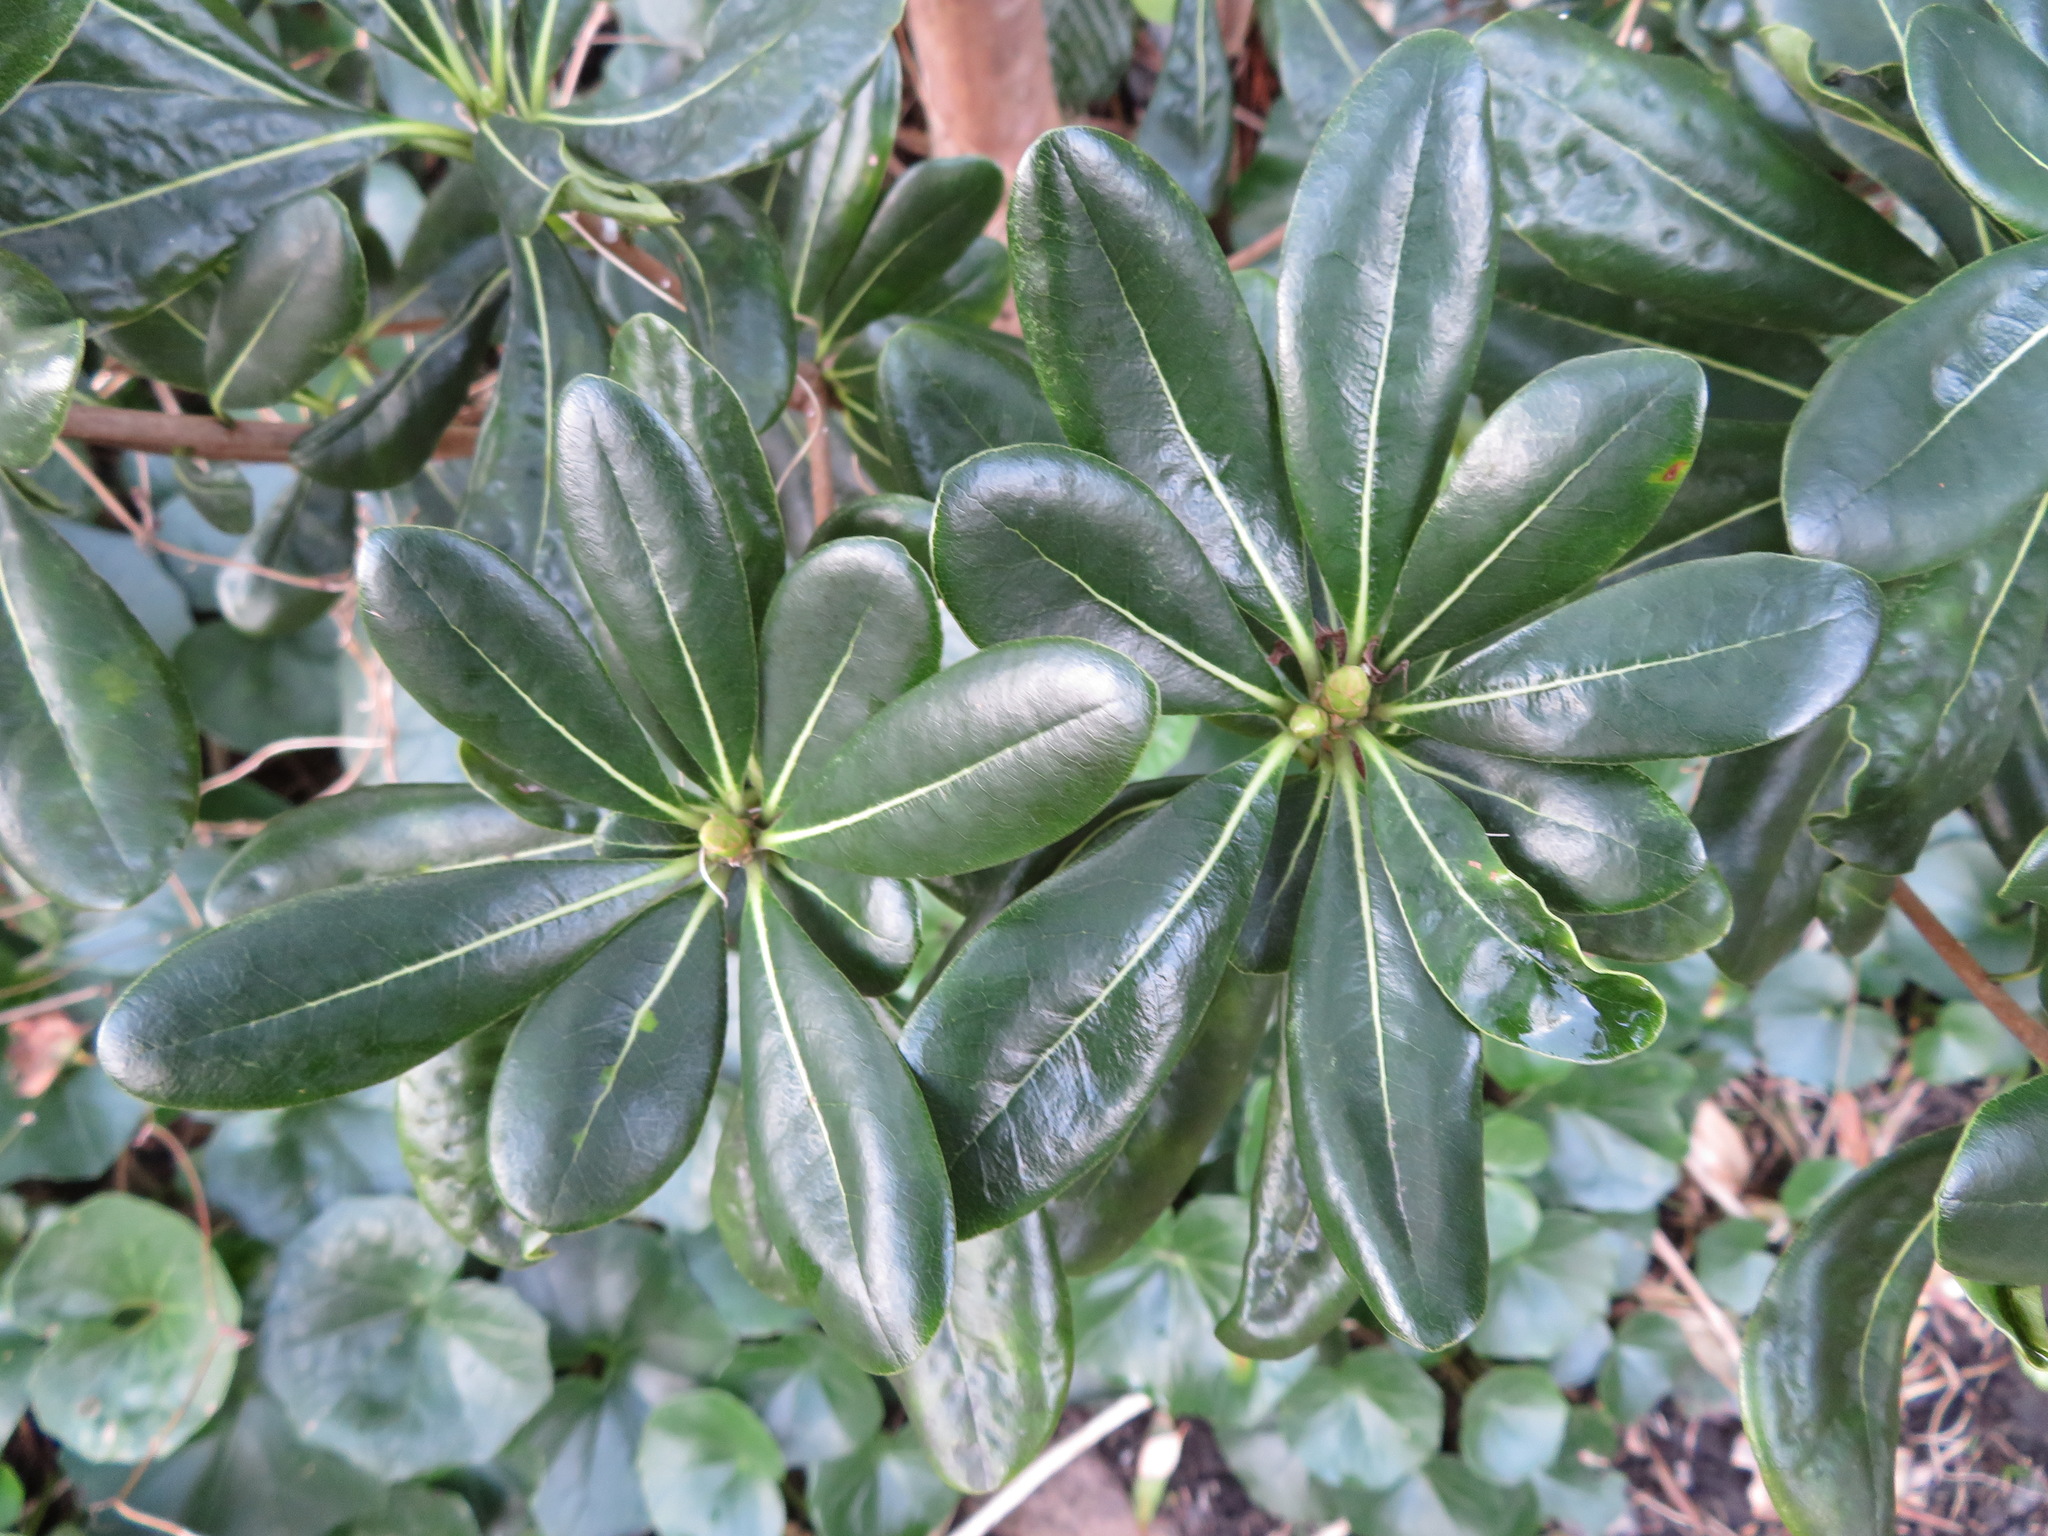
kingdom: Plantae
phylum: Tracheophyta
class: Magnoliopsida
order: Apiales
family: Pittosporaceae
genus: Pittosporum
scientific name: Pittosporum tobira
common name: Japanese cheesewood
